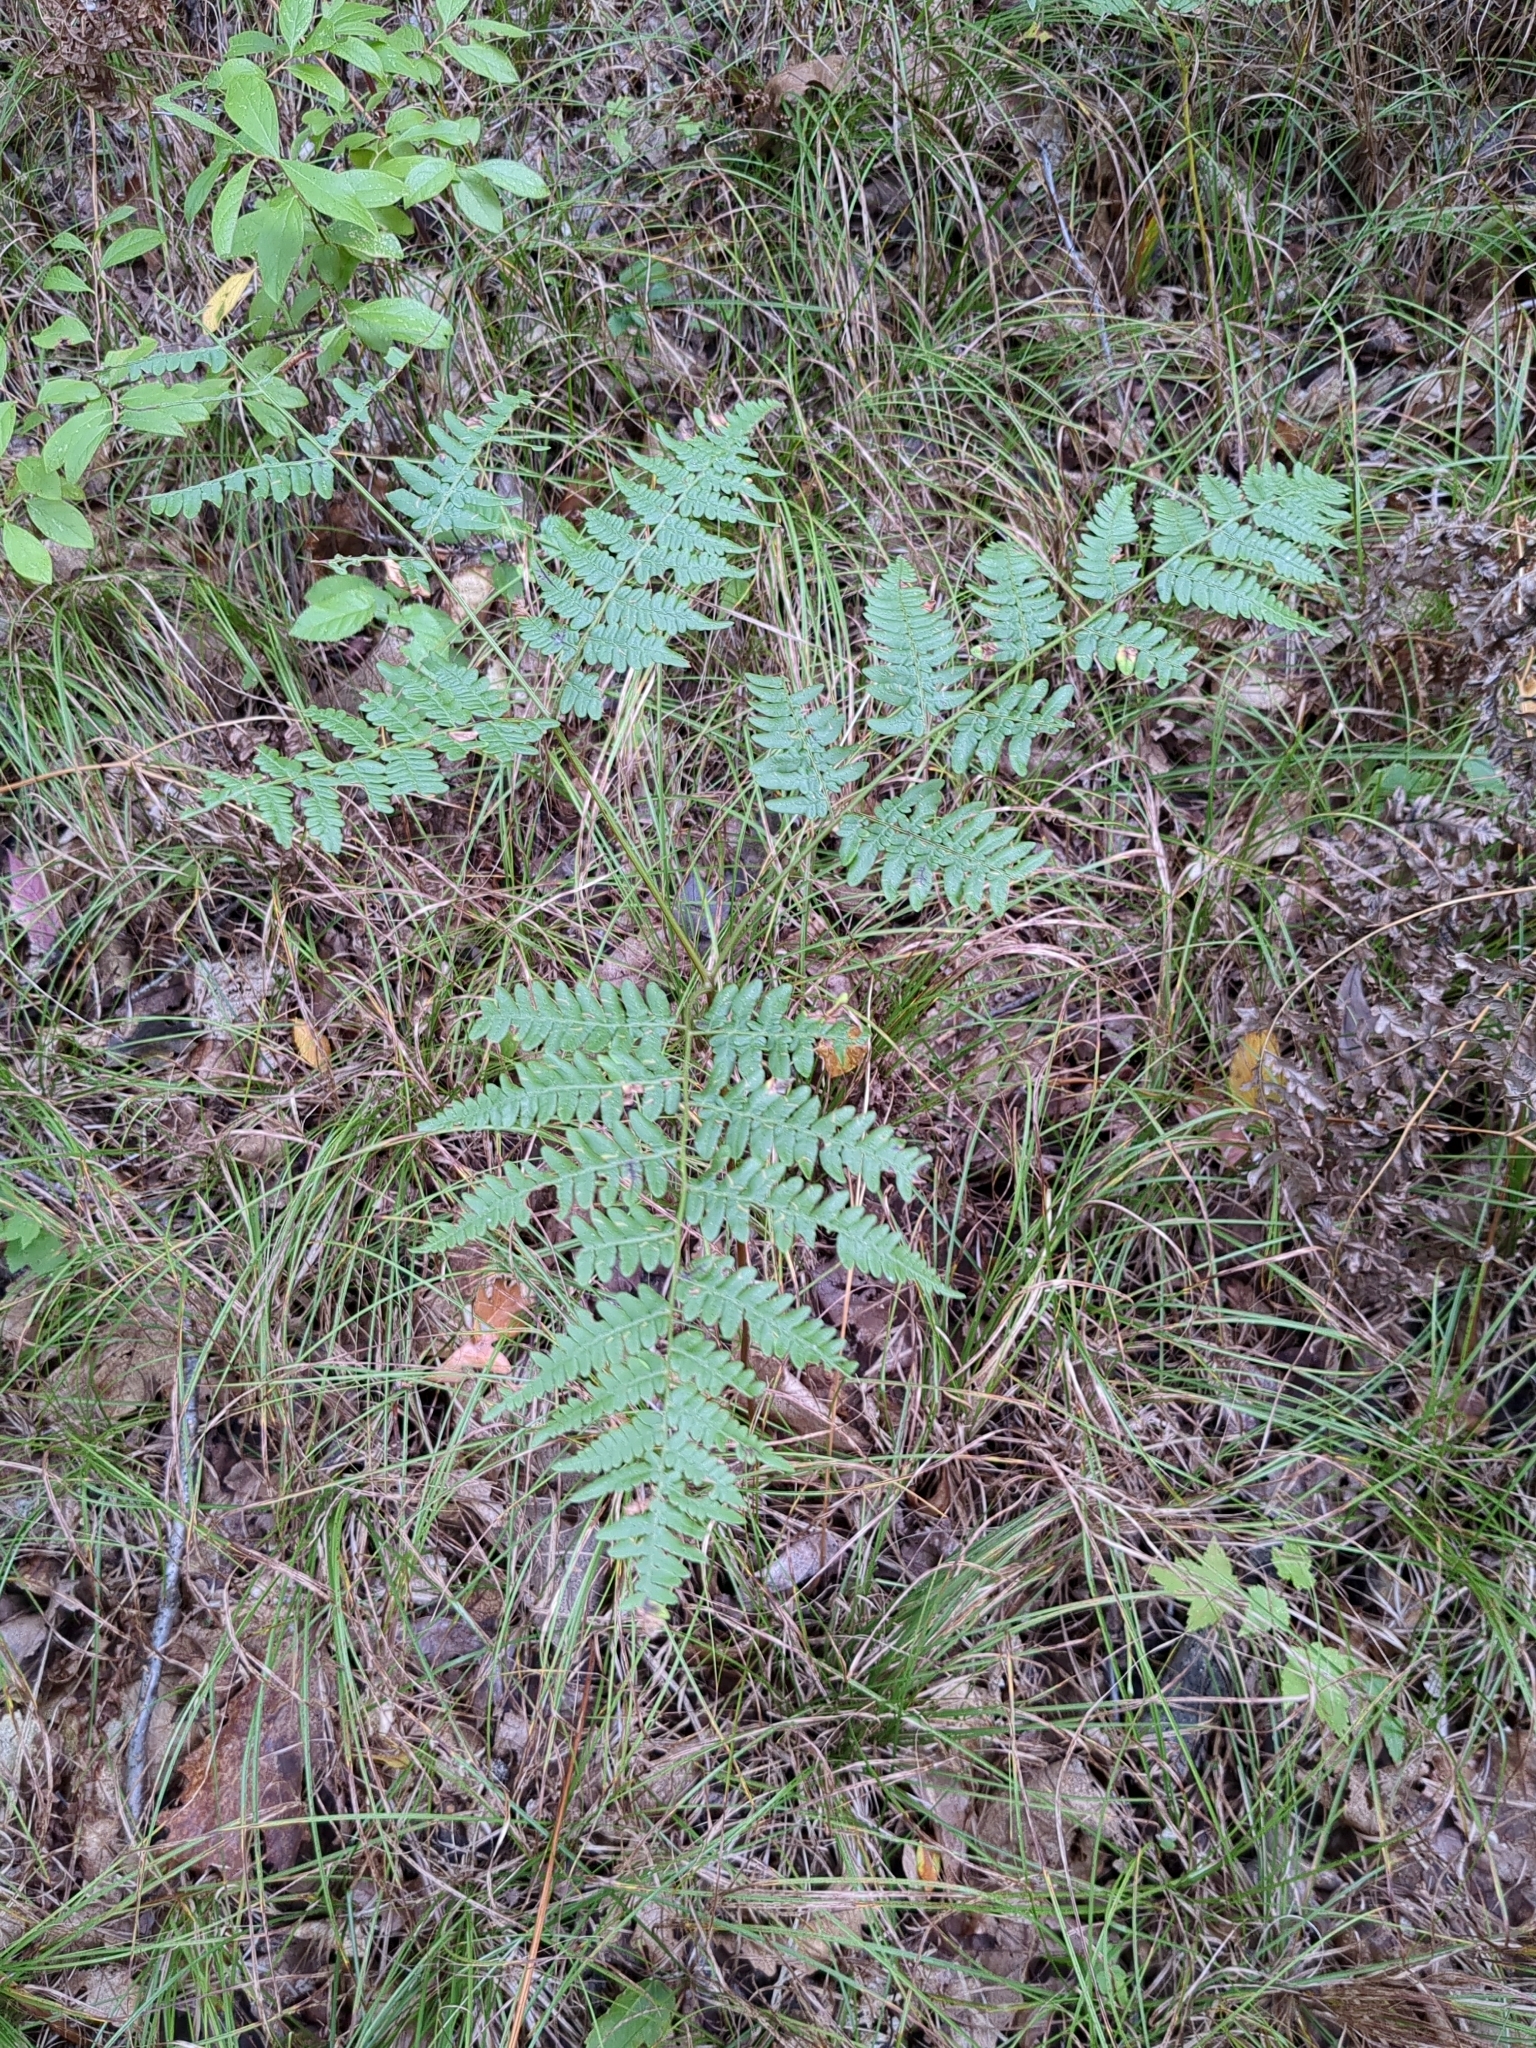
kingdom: Plantae
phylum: Tracheophyta
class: Polypodiopsida
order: Polypodiales
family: Dennstaedtiaceae
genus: Pteridium
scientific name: Pteridium aquilinum
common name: Bracken
